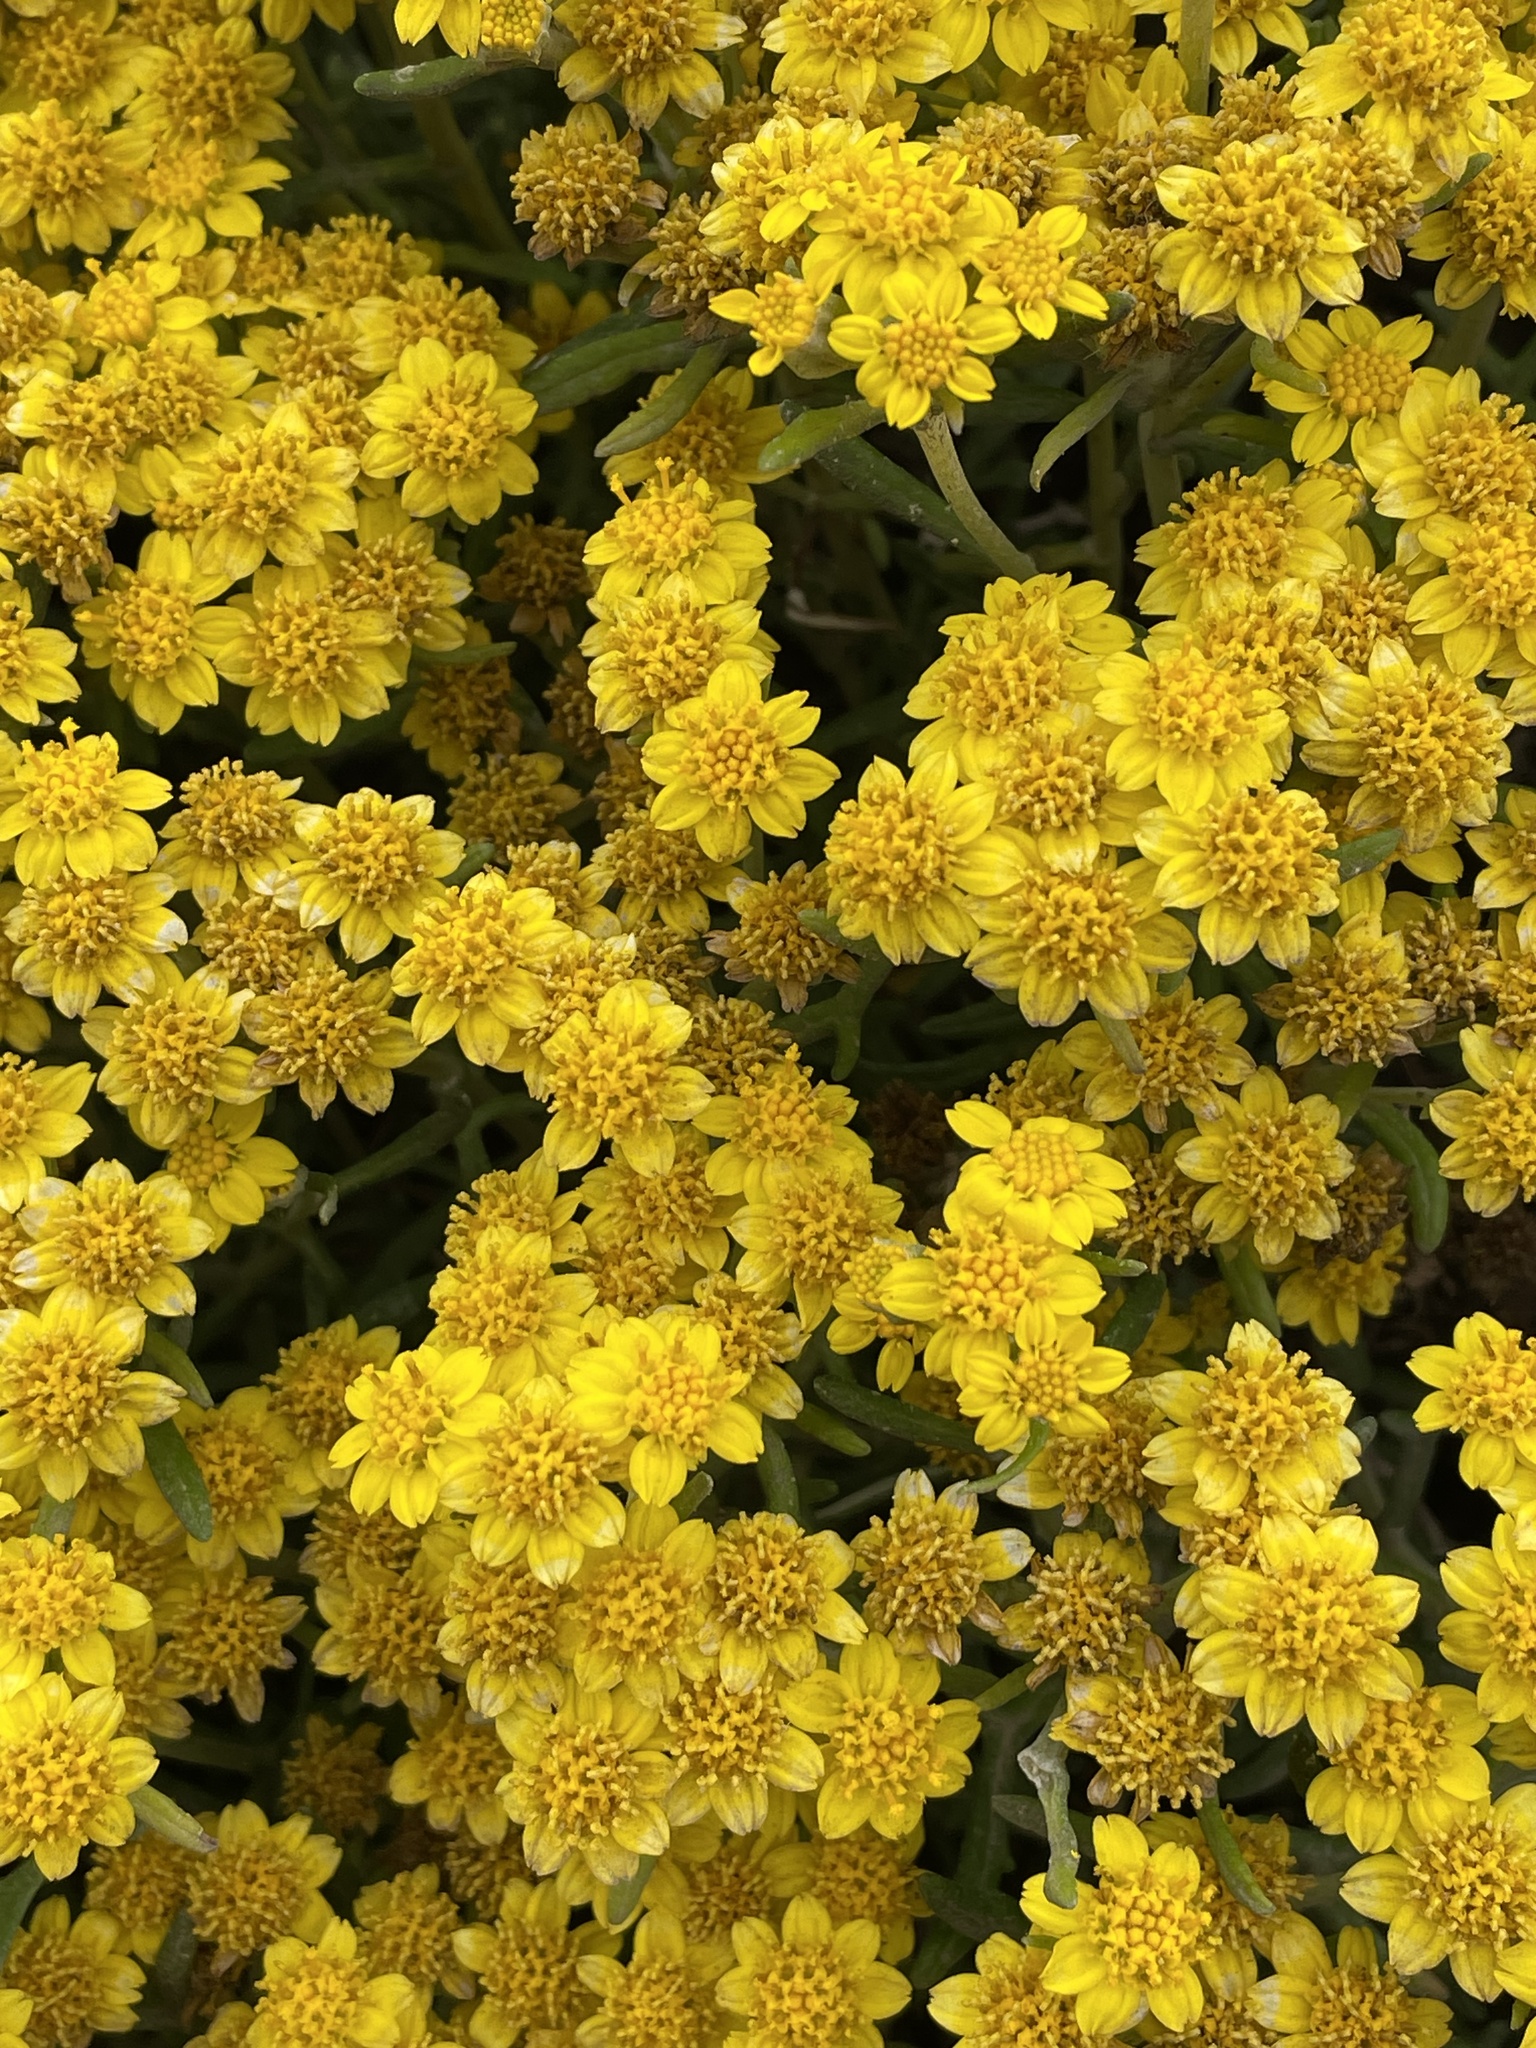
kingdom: Plantae
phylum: Tracheophyta
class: Magnoliopsida
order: Asterales
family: Asteraceae
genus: Eriophyllum
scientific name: Eriophyllum staechadifolium
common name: Lizardtail
